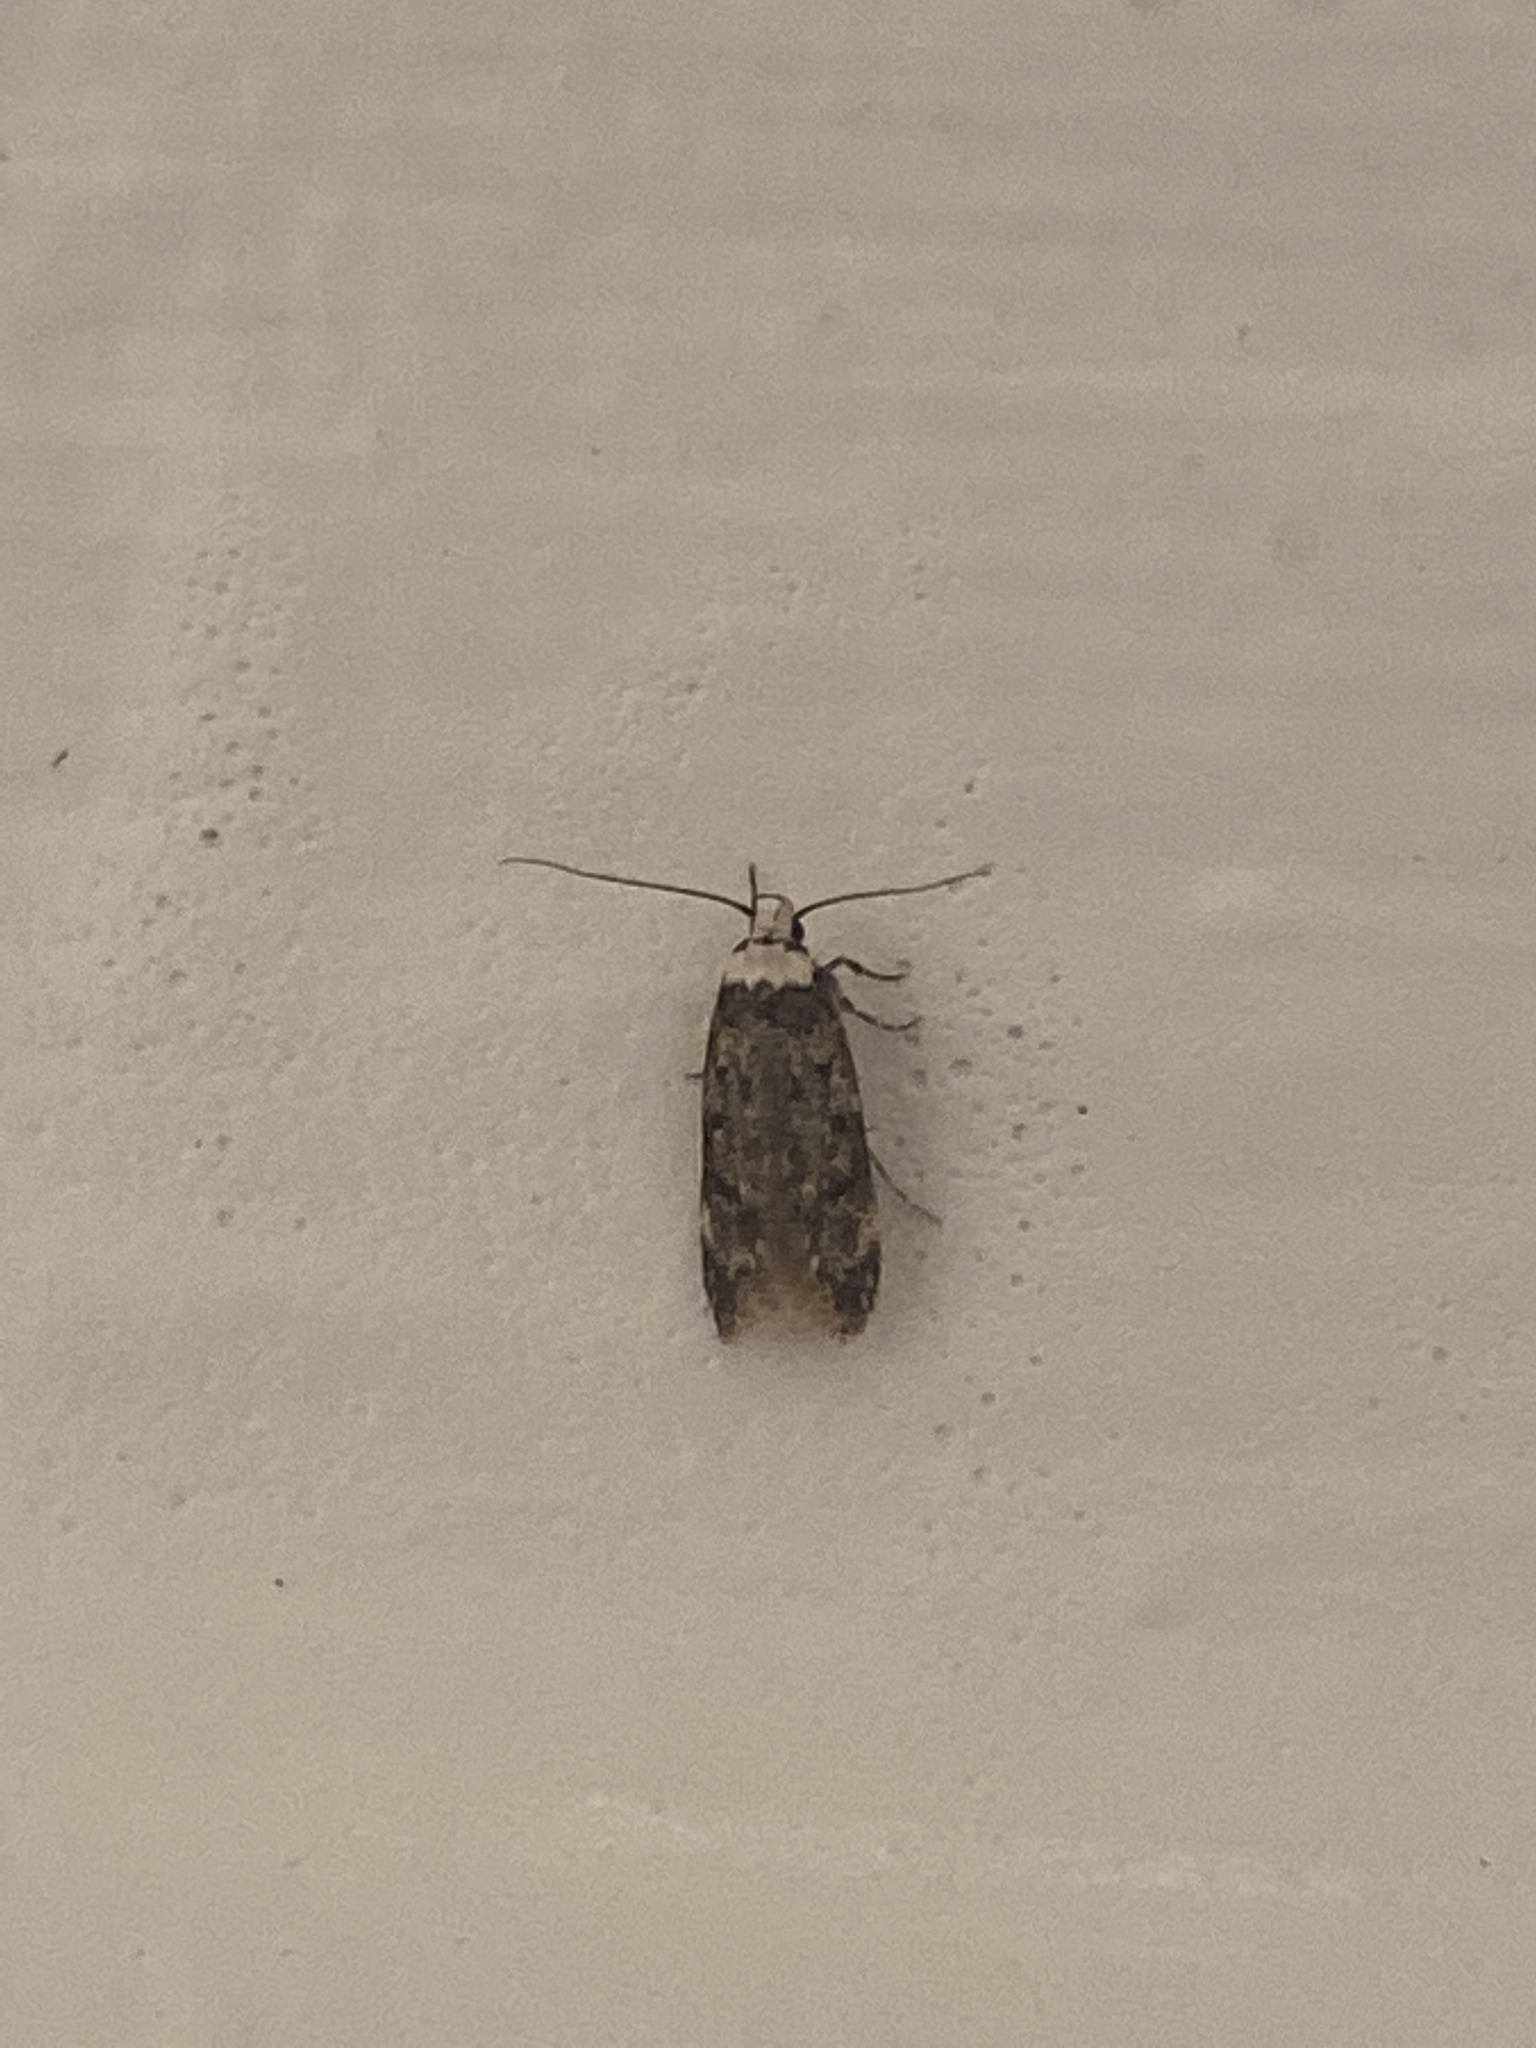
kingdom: Animalia
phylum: Arthropoda
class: Insecta
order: Lepidoptera
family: Oecophoridae
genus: Endrosis
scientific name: Endrosis sarcitrella
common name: White-shouldered house moth
